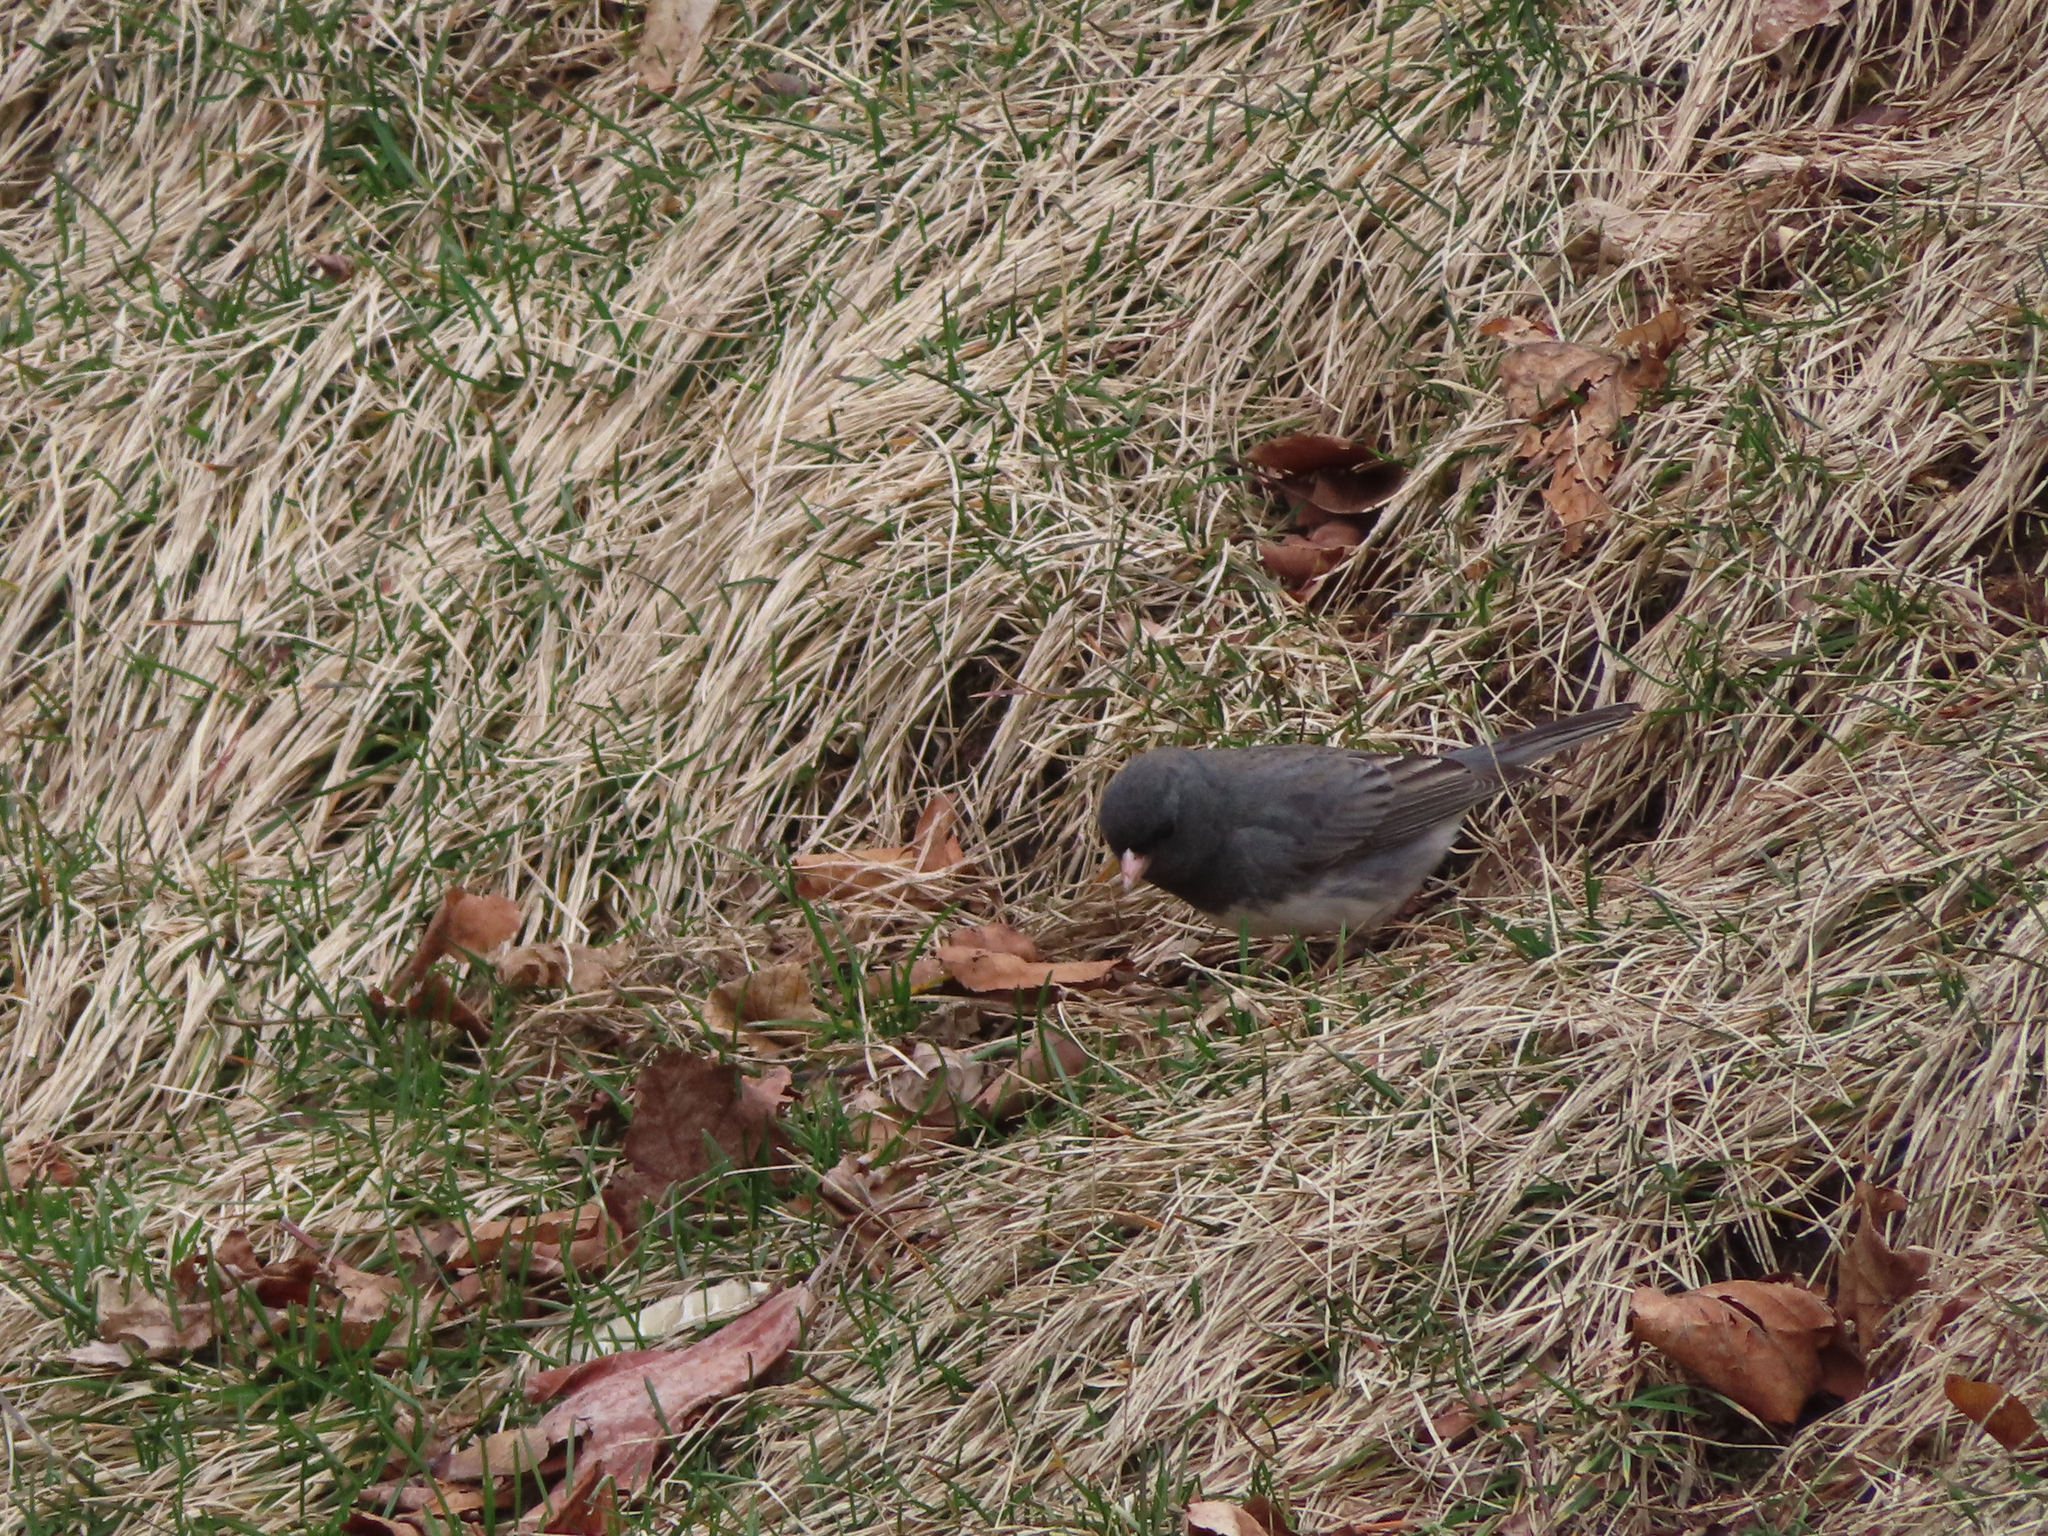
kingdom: Animalia
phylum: Chordata
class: Aves
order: Passeriformes
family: Passerellidae
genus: Junco
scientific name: Junco hyemalis
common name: Dark-eyed junco
